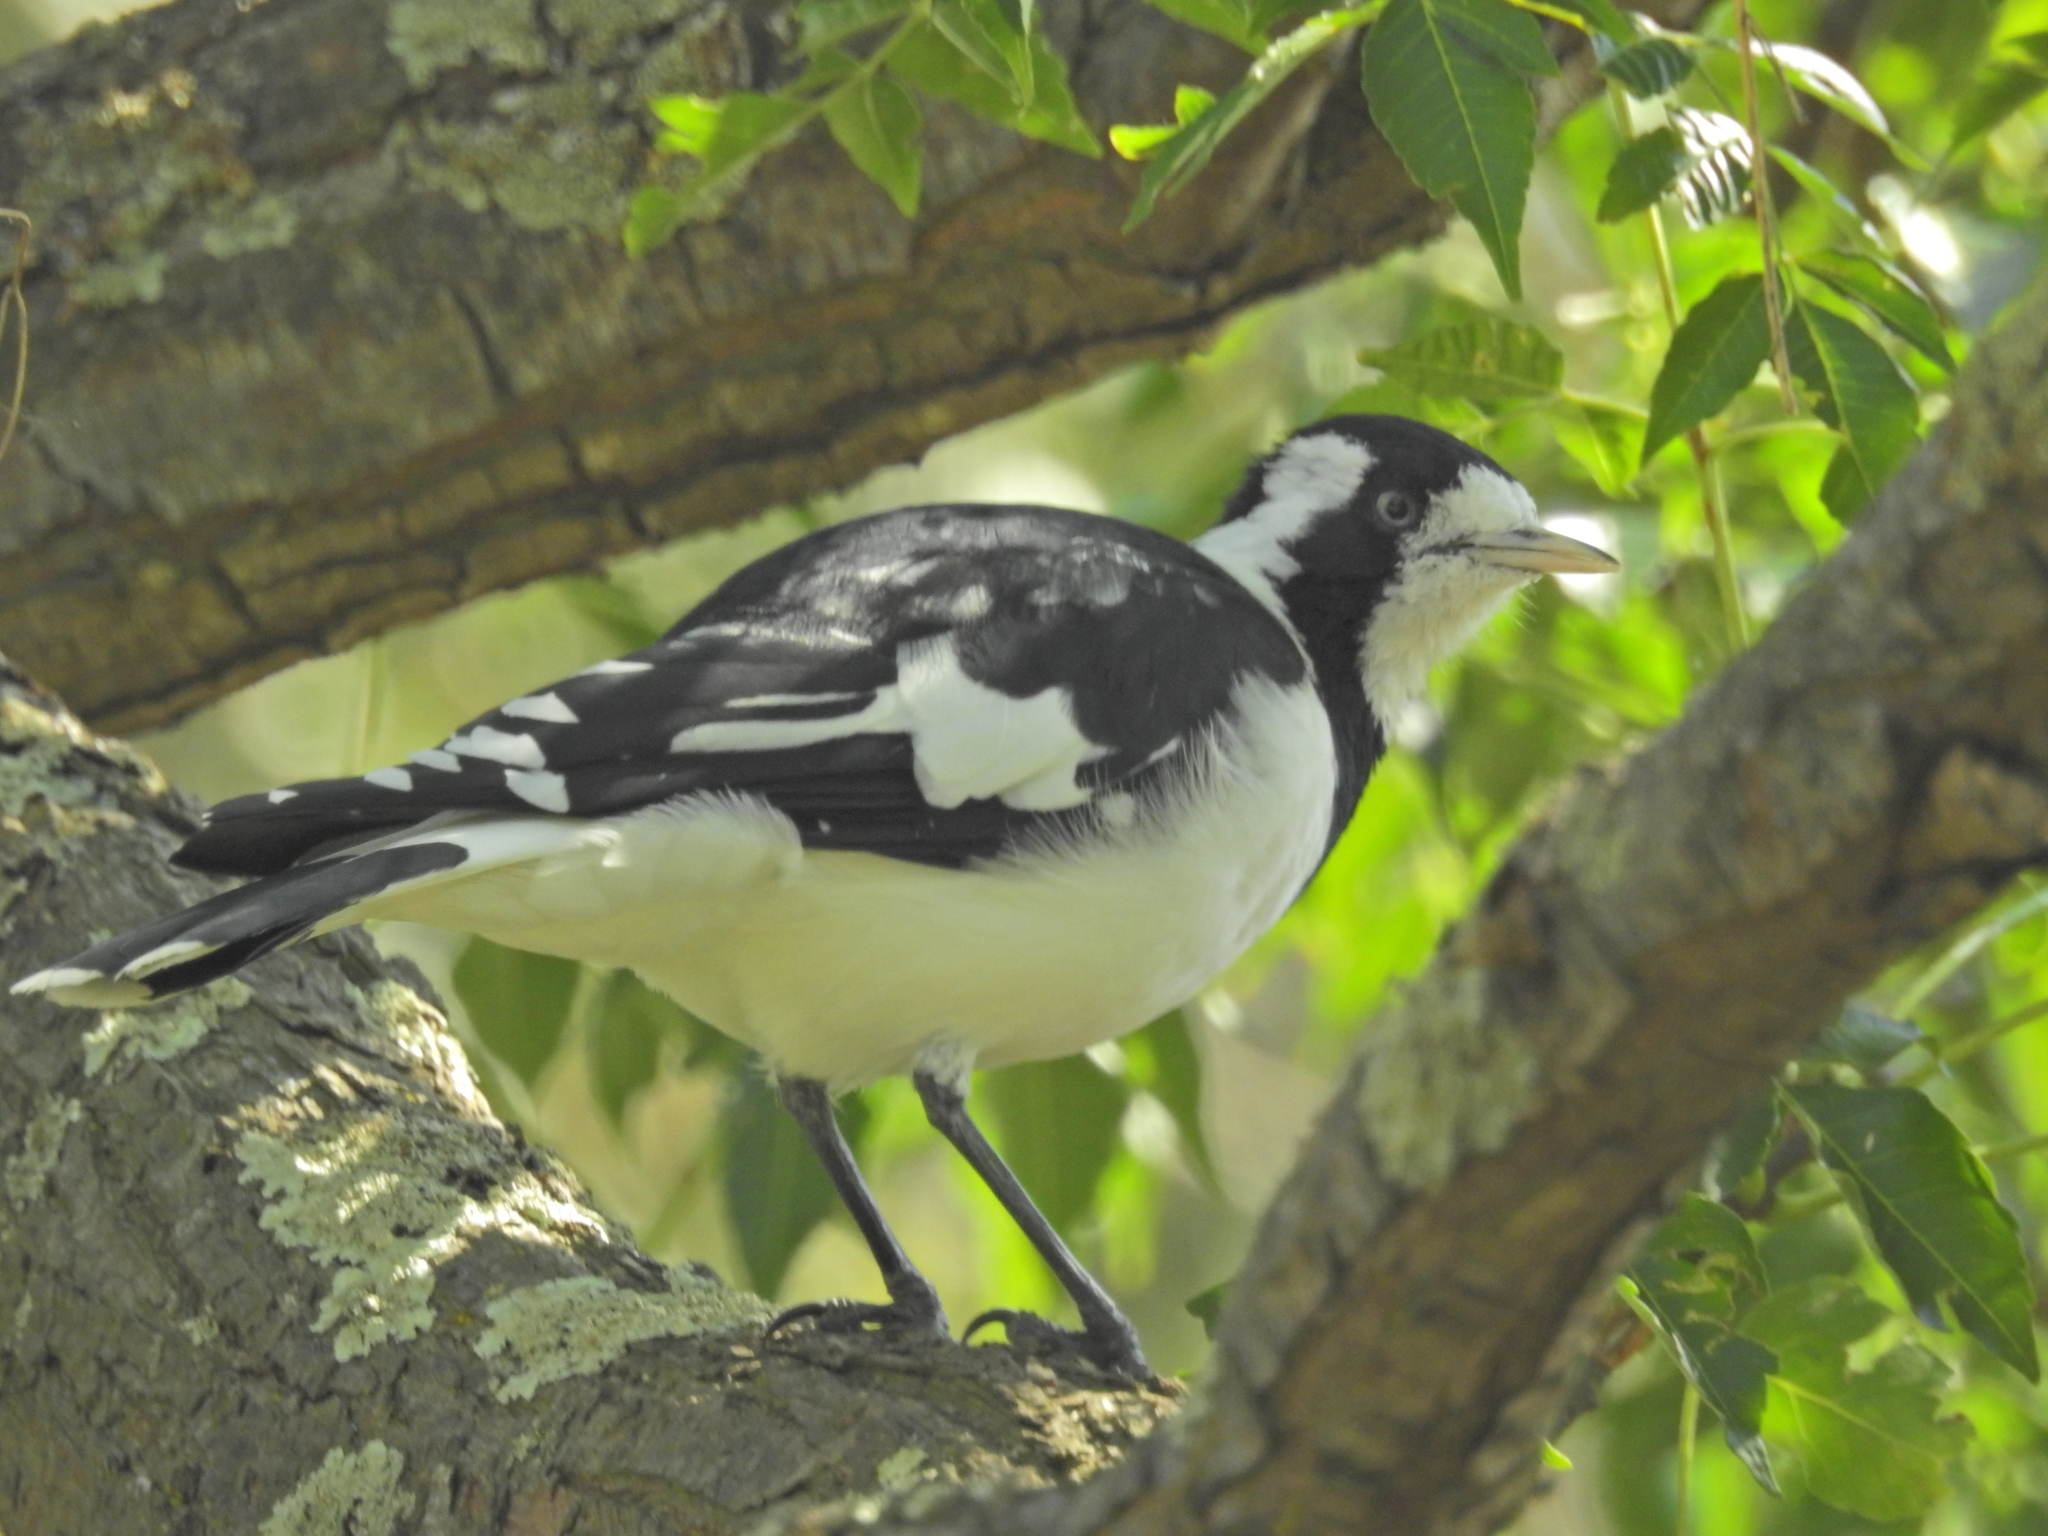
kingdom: Animalia
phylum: Chordata
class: Aves
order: Passeriformes
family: Monarchidae
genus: Grallina
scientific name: Grallina cyanoleuca
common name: Magpie-lark
